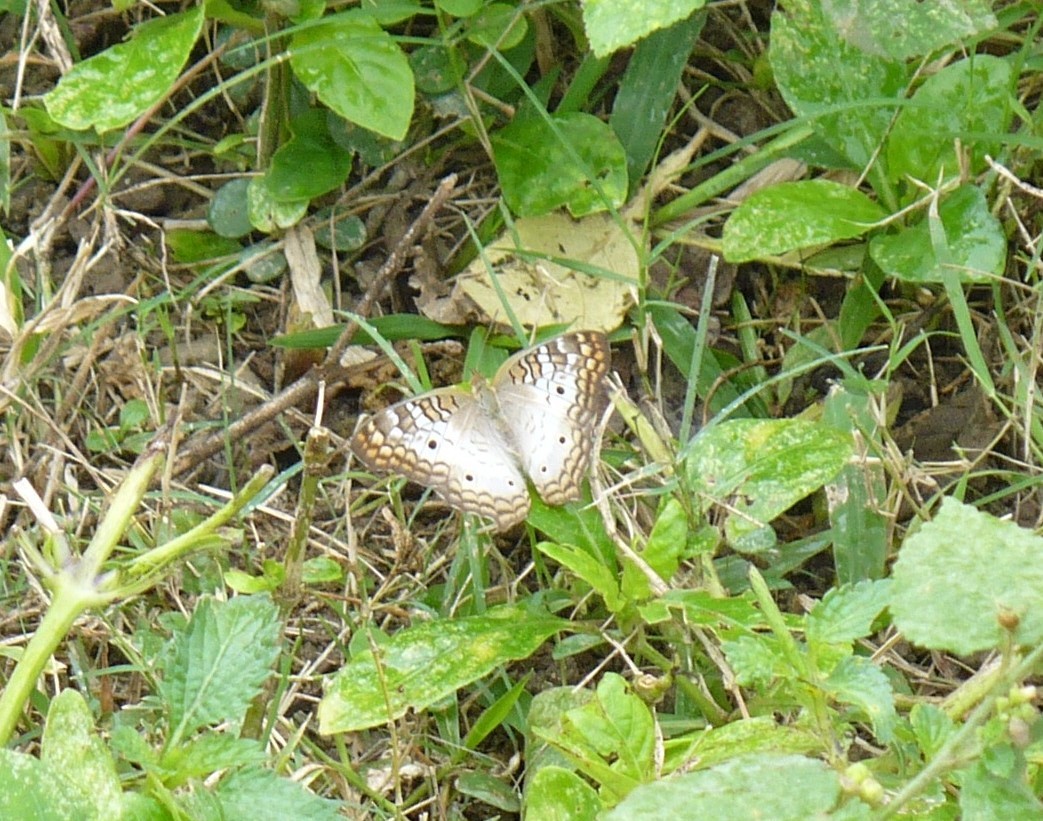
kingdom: Animalia
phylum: Arthropoda
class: Insecta
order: Lepidoptera
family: Nymphalidae
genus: Anartia
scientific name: Anartia jatrophae
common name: White peacock
